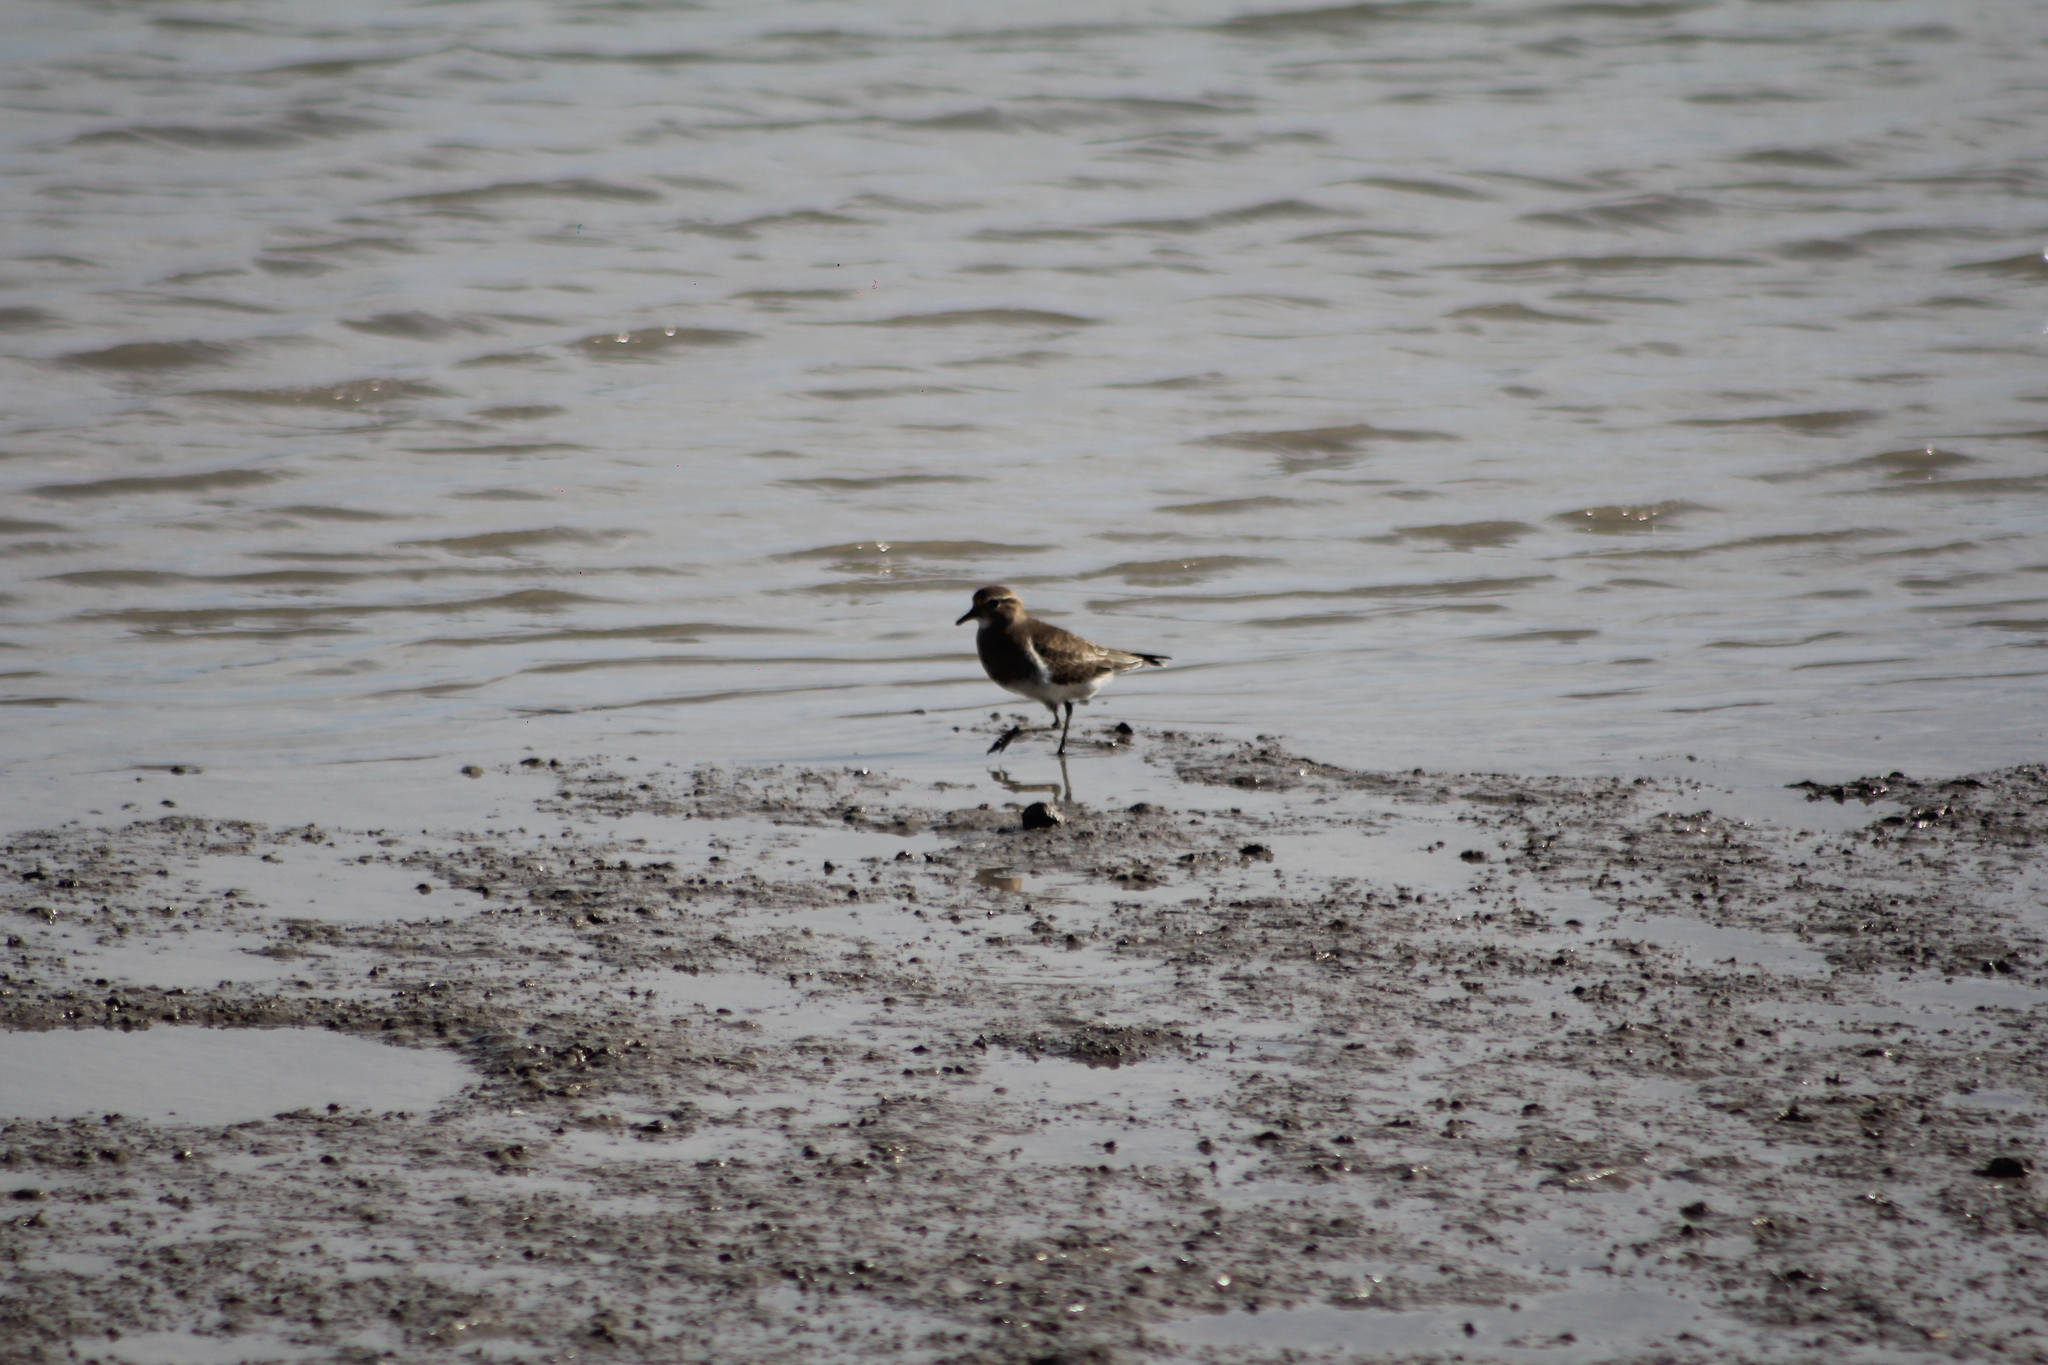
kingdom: Animalia
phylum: Chordata
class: Aves
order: Charadriiformes
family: Charadriidae
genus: Charadrius
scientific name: Charadrius modestus
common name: Rufous-chested plover
